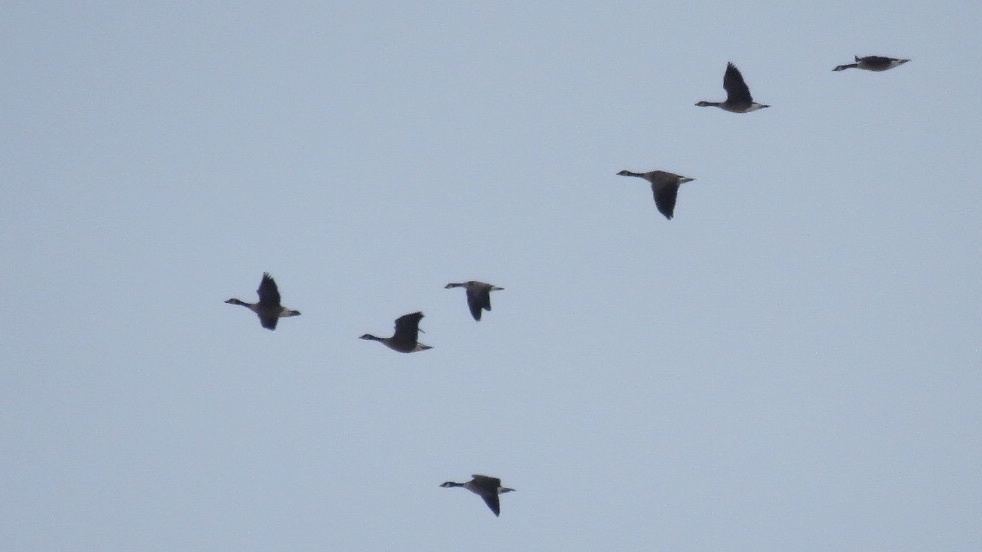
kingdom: Animalia
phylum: Chordata
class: Aves
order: Anseriformes
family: Anatidae
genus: Branta
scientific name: Branta hutchinsii
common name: Cackling goose
